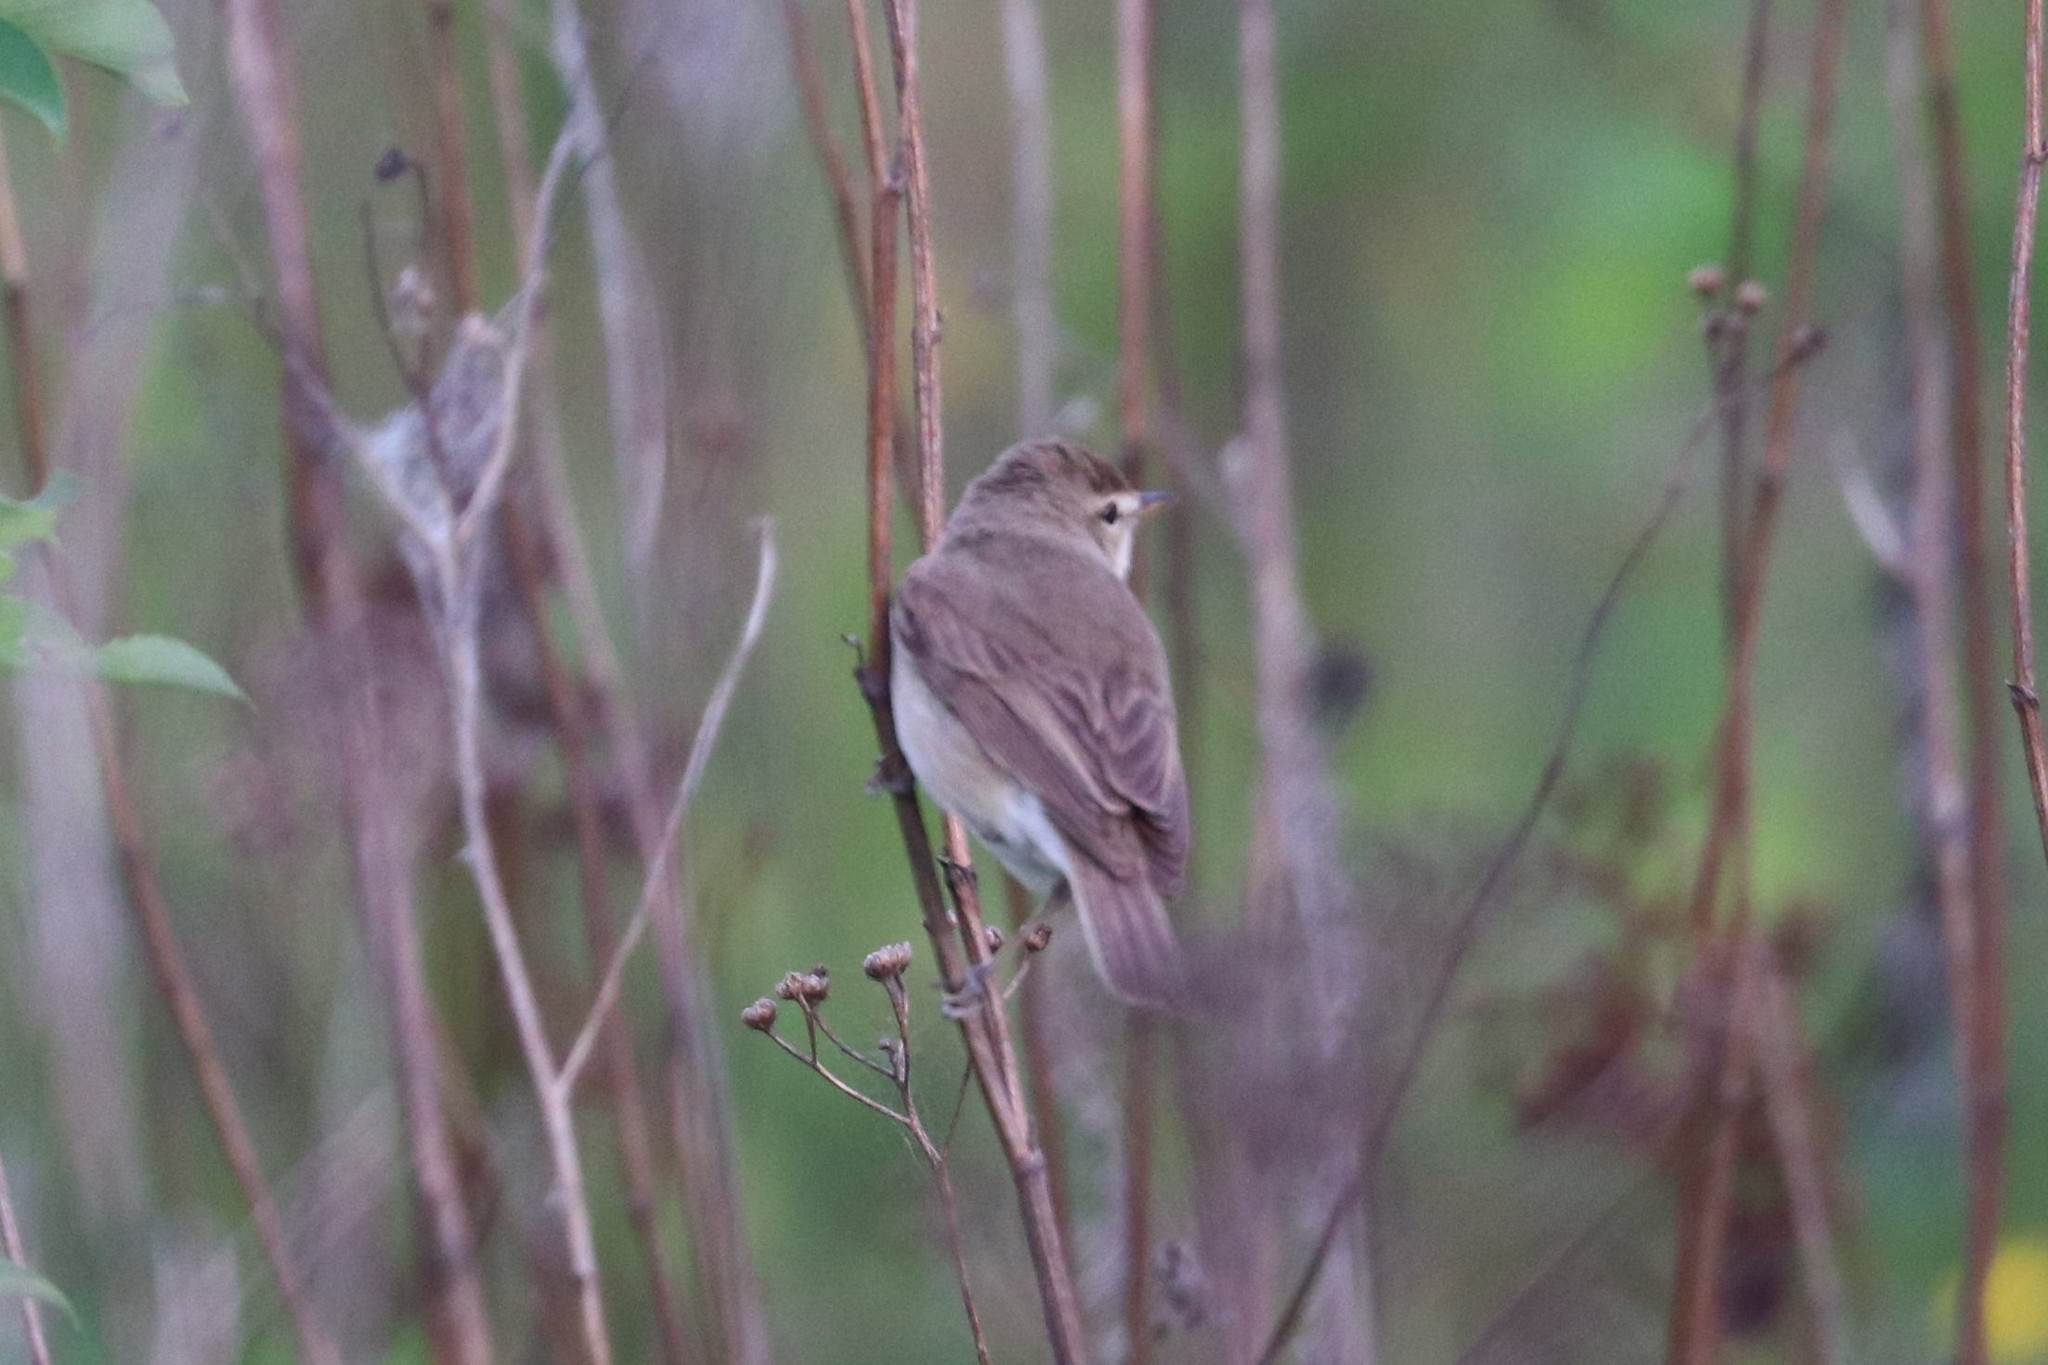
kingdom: Animalia
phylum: Chordata
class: Aves
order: Passeriformes
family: Acrocephalidae
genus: Iduna
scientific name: Iduna caligata
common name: Booted warbler
